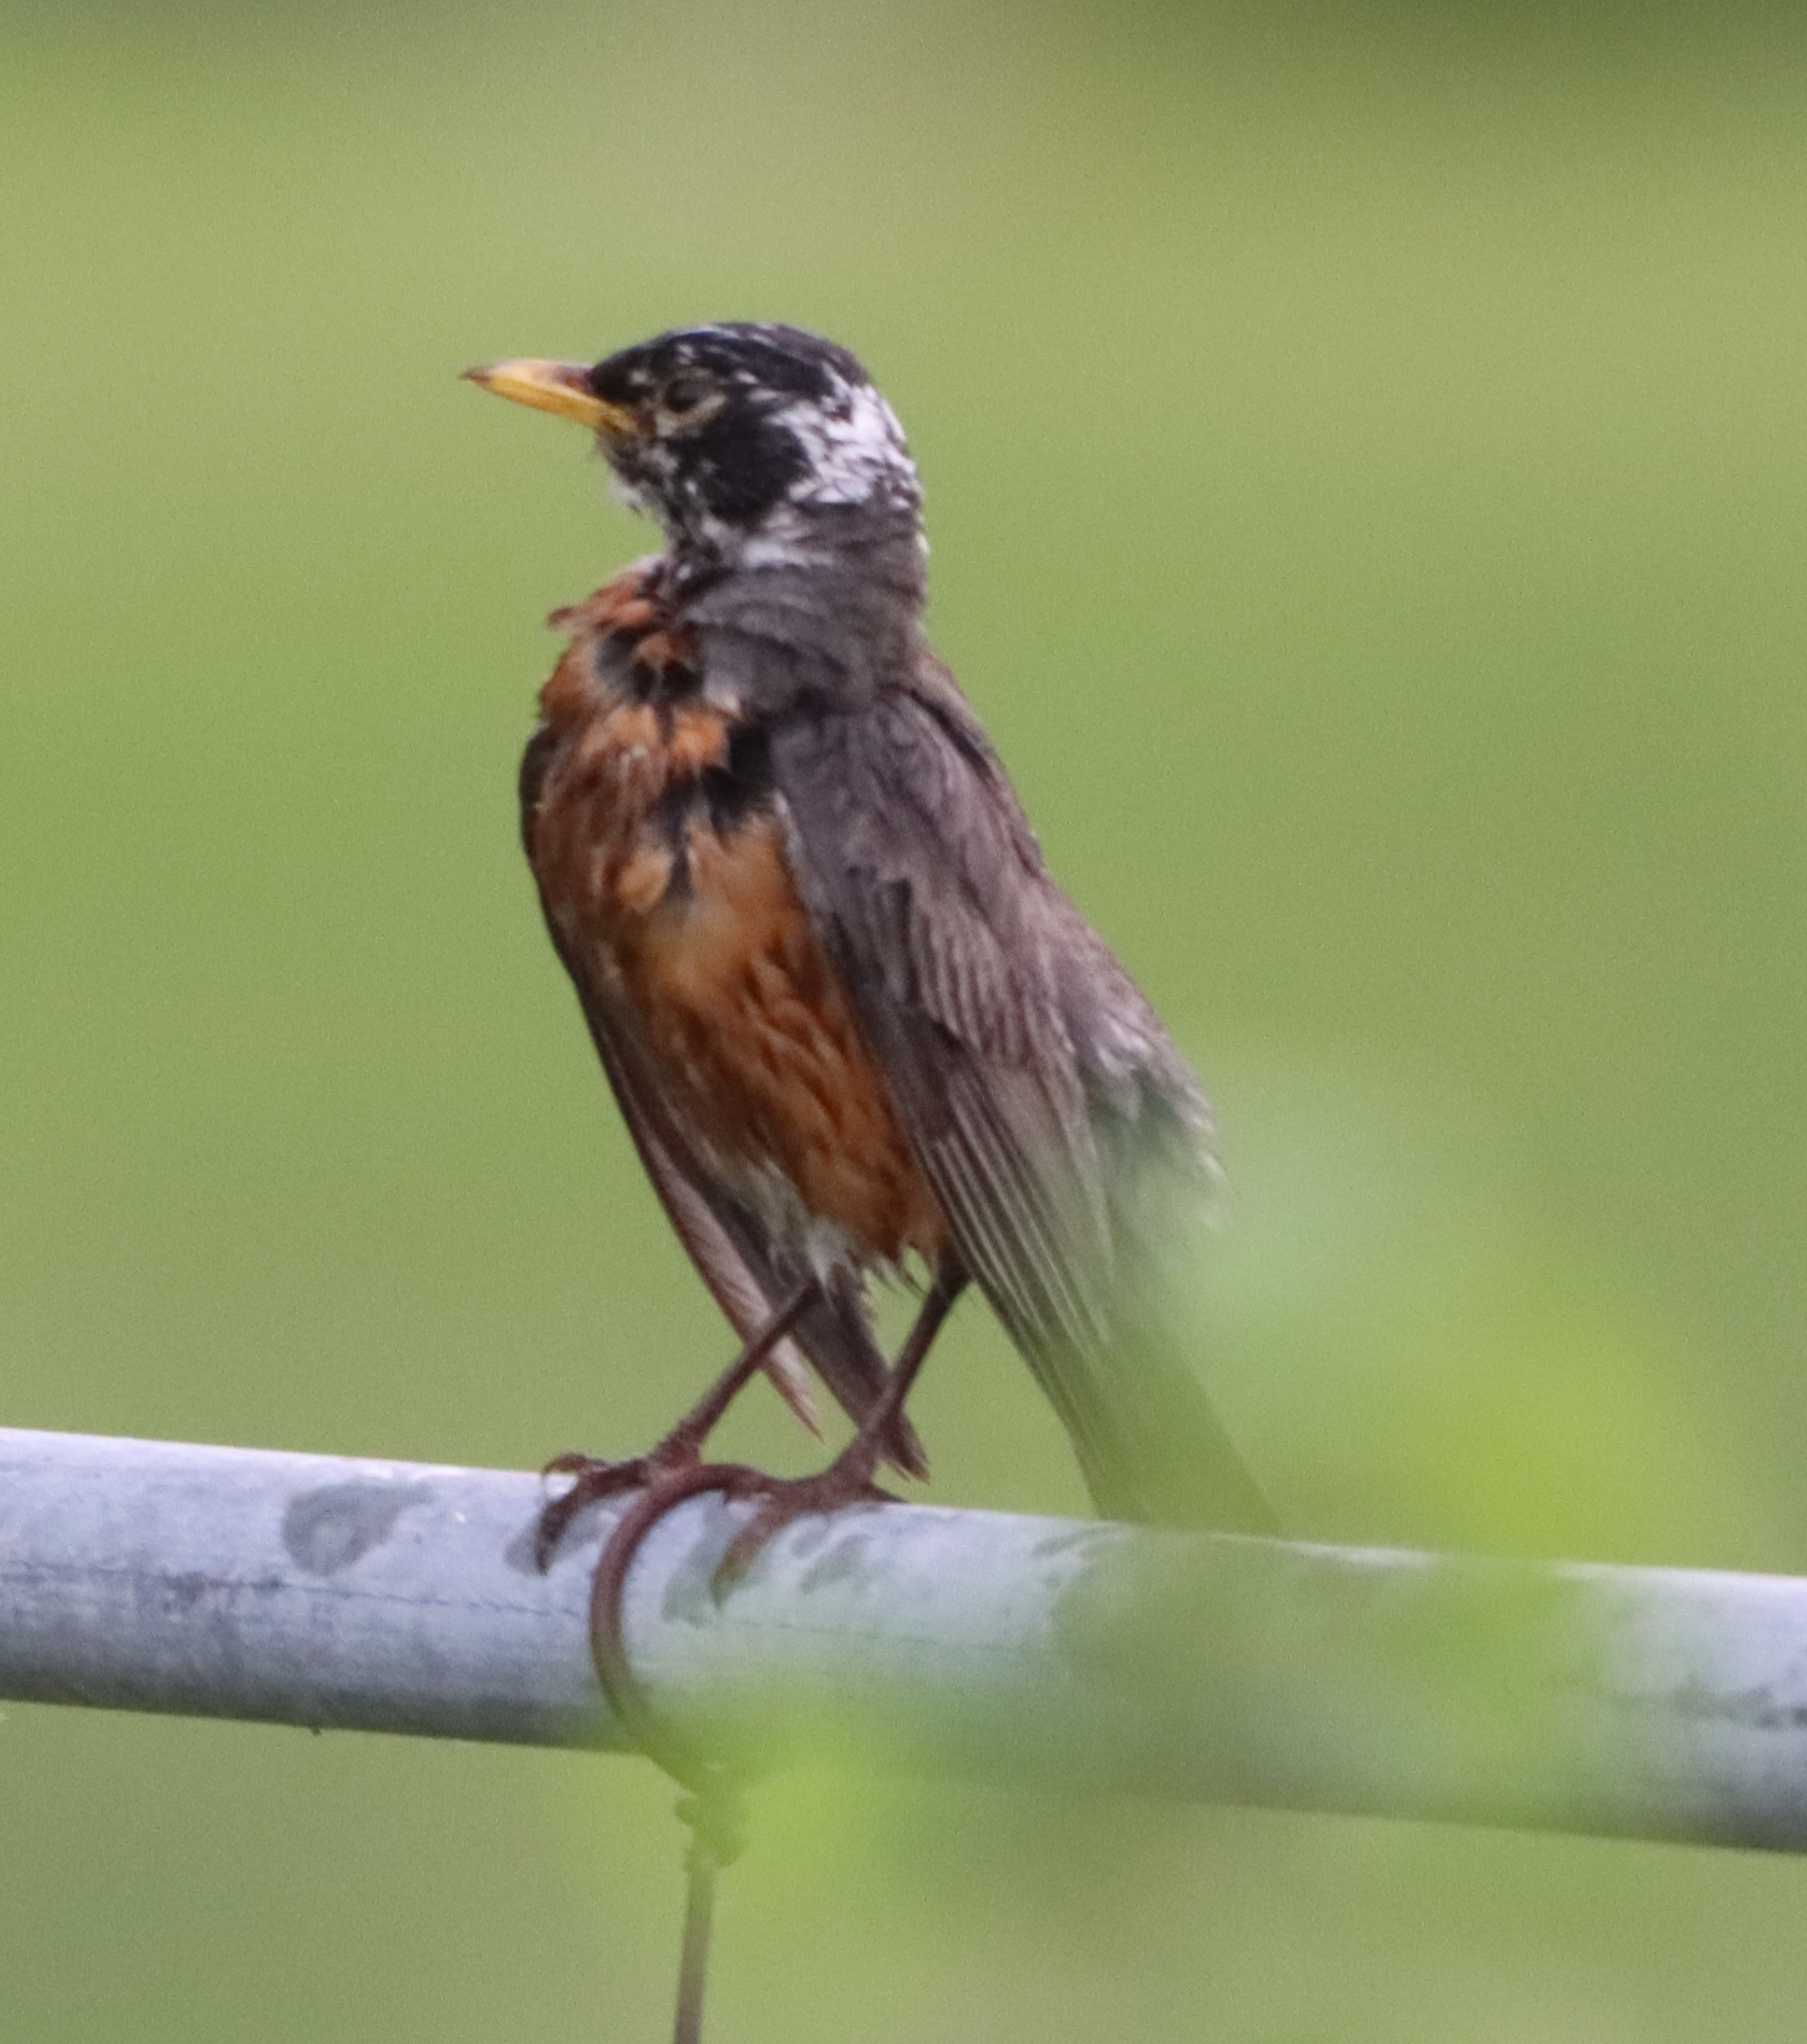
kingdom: Animalia
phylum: Chordata
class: Aves
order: Passeriformes
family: Turdidae
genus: Turdus
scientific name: Turdus migratorius
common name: American robin
